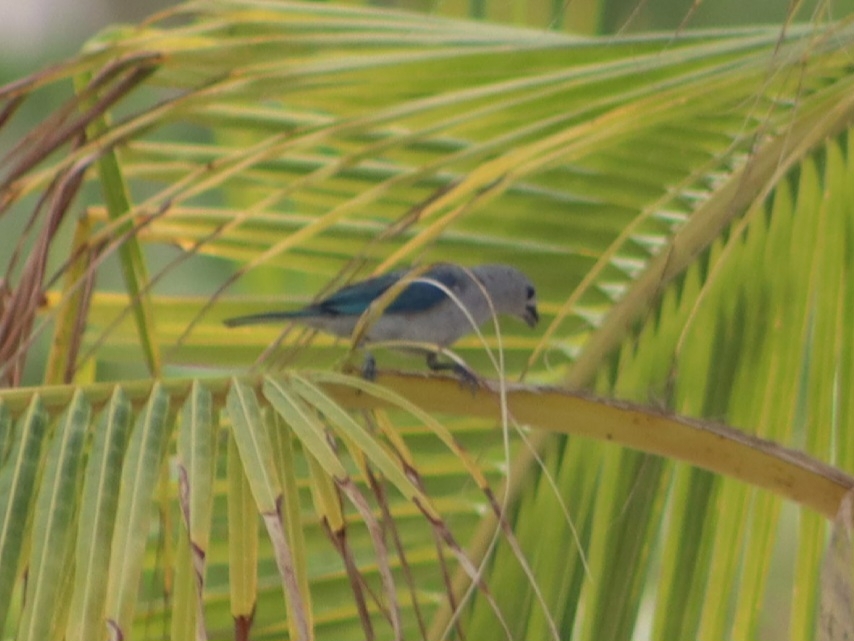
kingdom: Animalia
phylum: Chordata
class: Aves
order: Passeriformes
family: Thraupidae
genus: Thraupis
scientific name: Thraupis episcopus
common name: Blue-grey tanager
